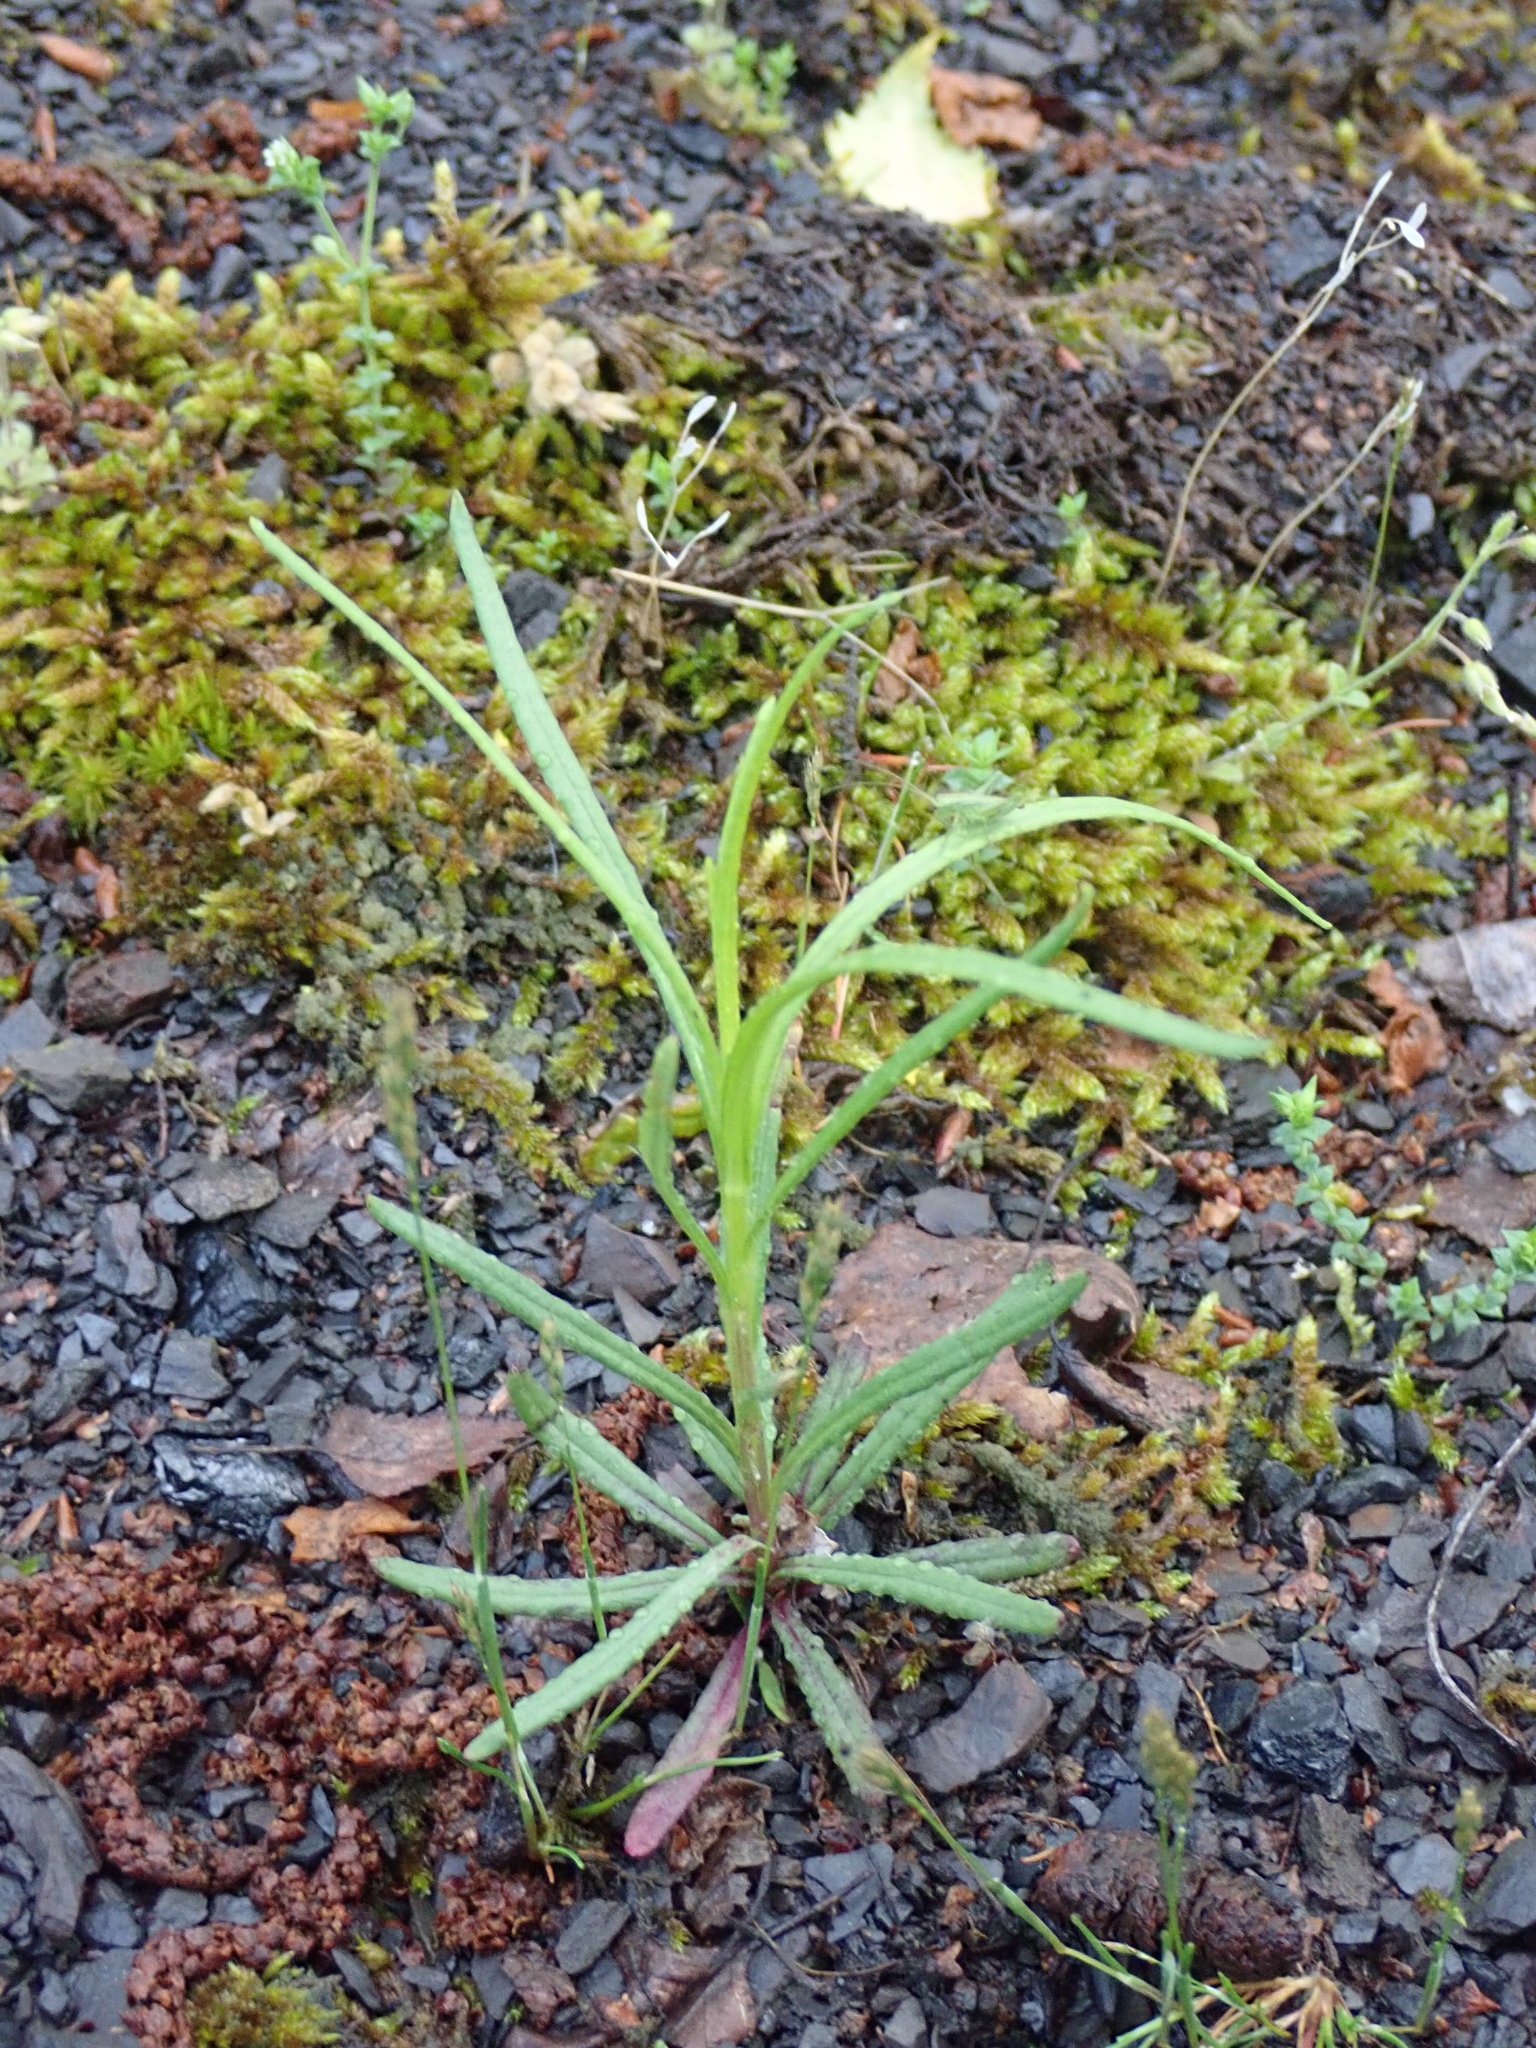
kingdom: Plantae
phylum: Tracheophyta
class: Magnoliopsida
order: Asterales
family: Asteraceae
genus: Senecio
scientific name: Senecio inaequidens
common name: Narrow-leaved ragwort
